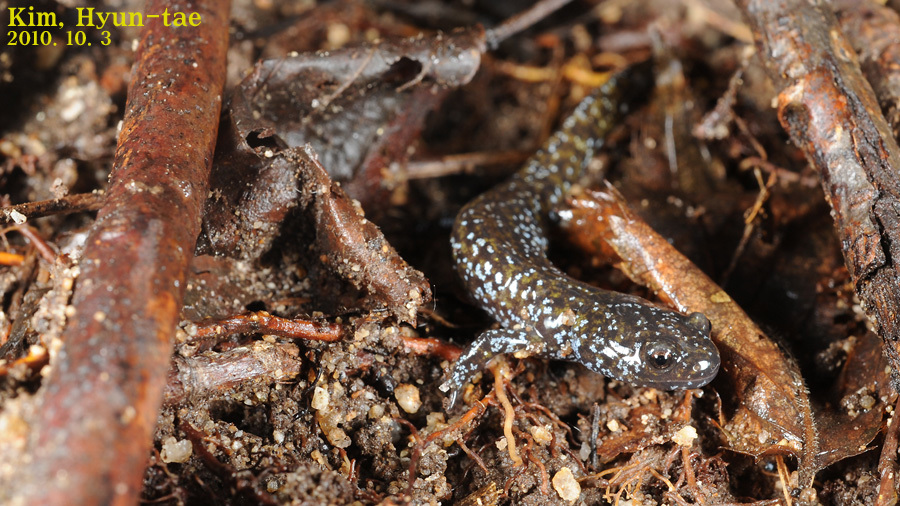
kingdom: Animalia
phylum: Chordata
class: Amphibia
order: Caudata
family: Hynobiidae
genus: Hynobius
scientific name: Hynobius leechii
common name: Gensan salamander
